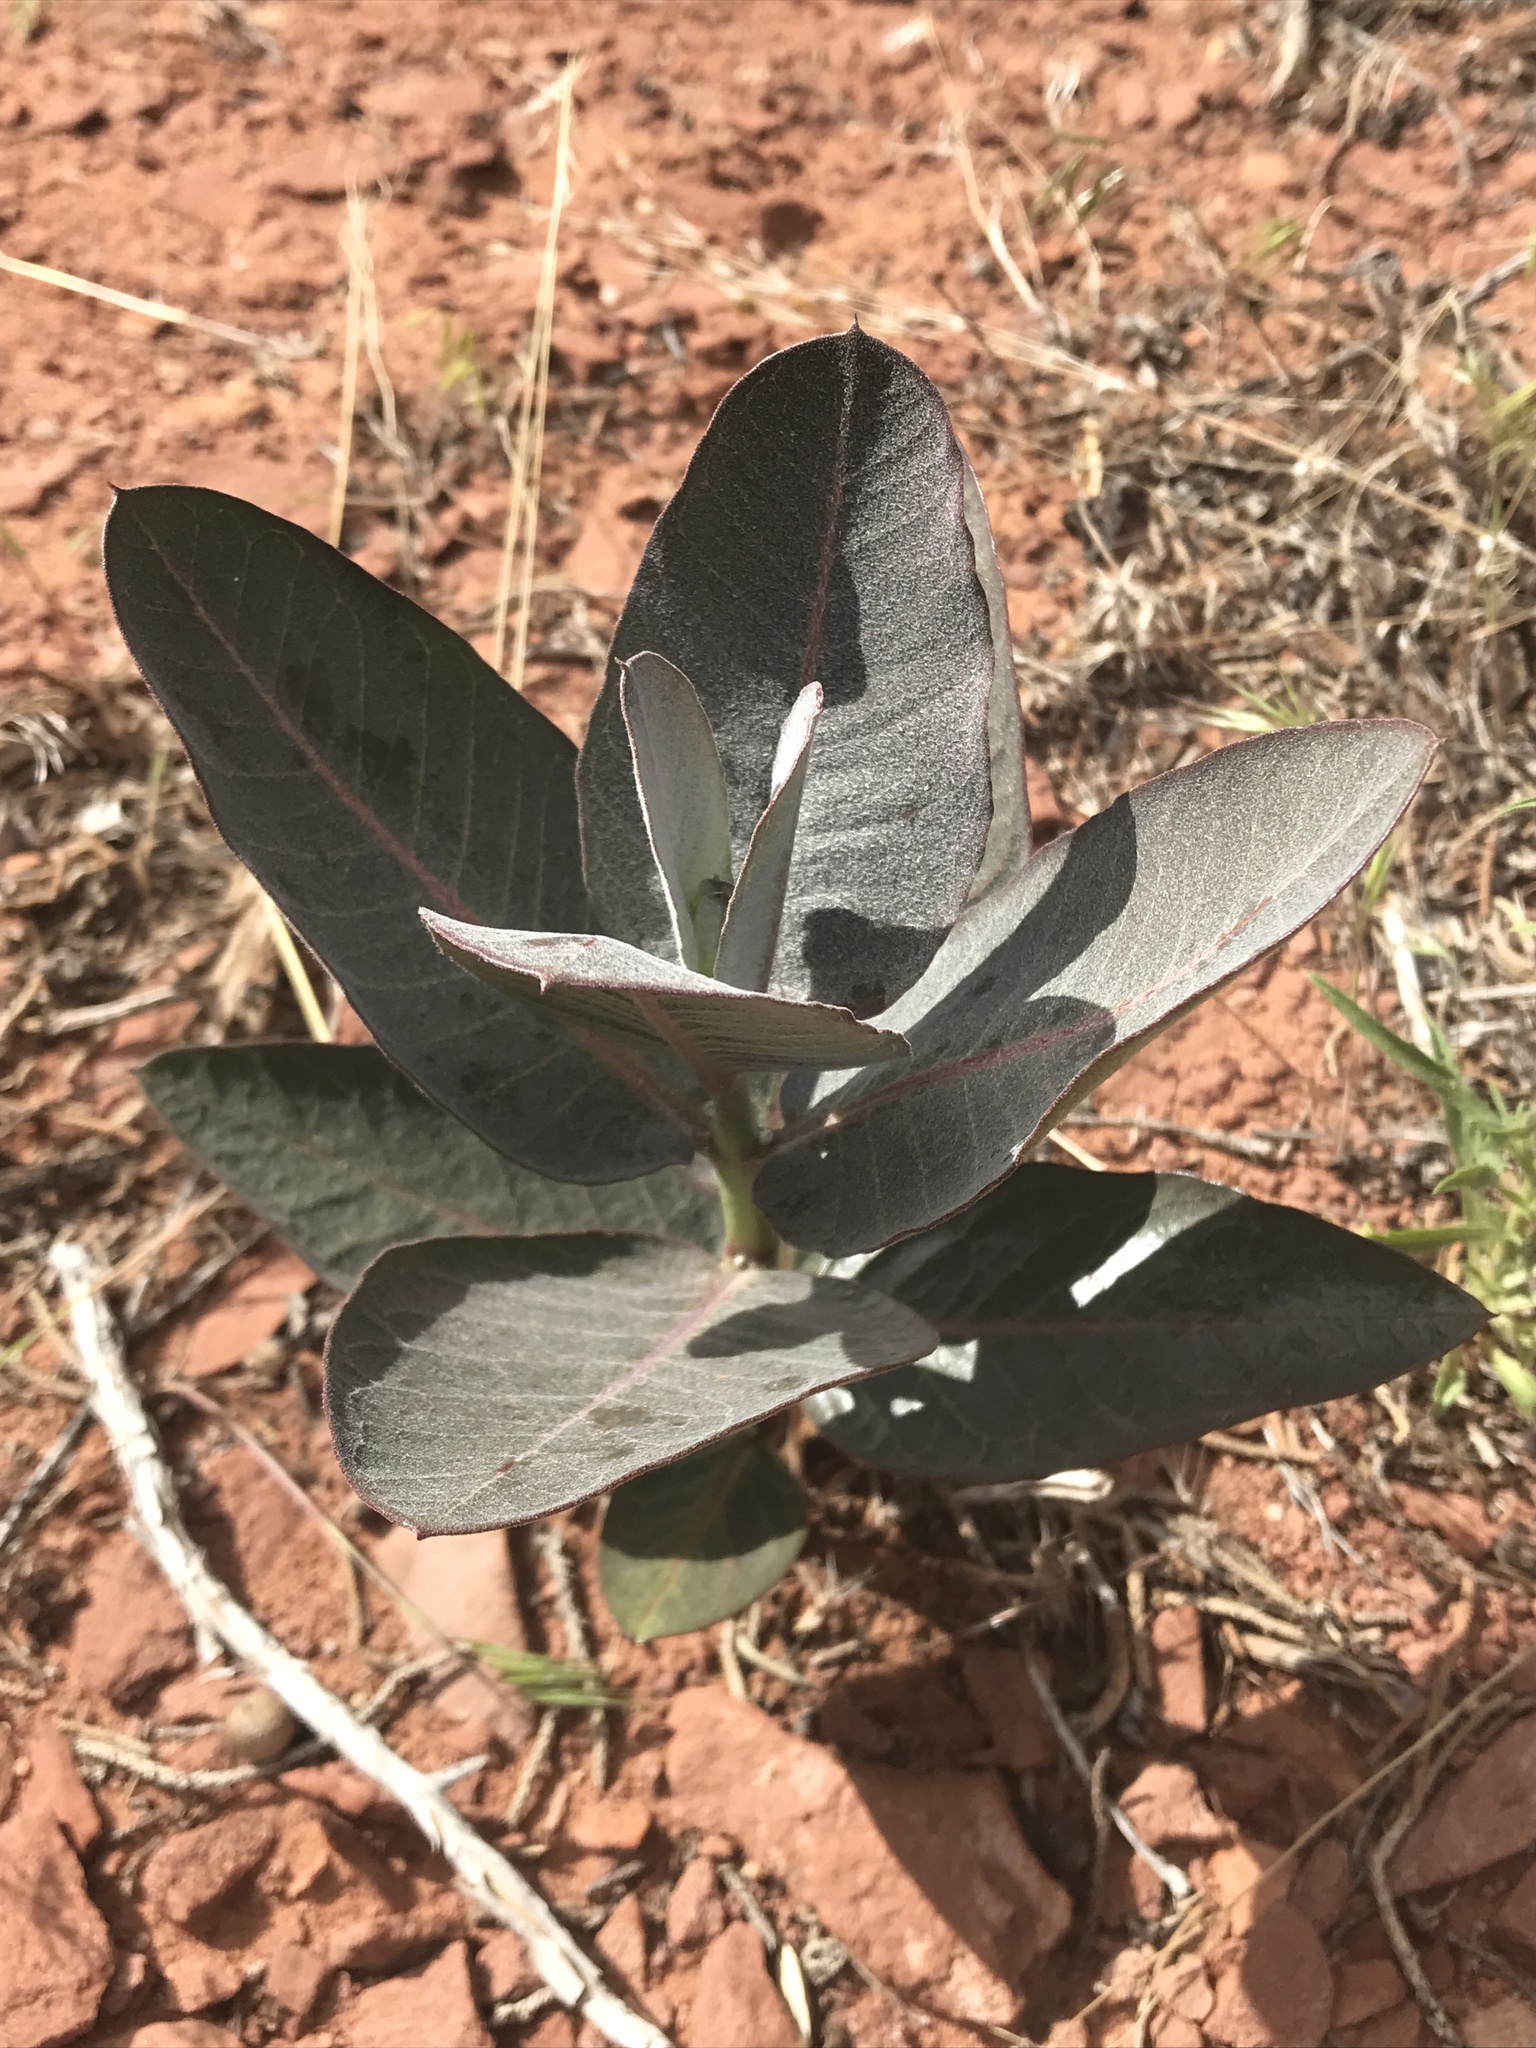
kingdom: Plantae
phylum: Tracheophyta
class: Magnoliopsida
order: Gentianales
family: Apocynaceae
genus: Asclepias
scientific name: Asclepias latifolia
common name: Broadleaf milkweed
